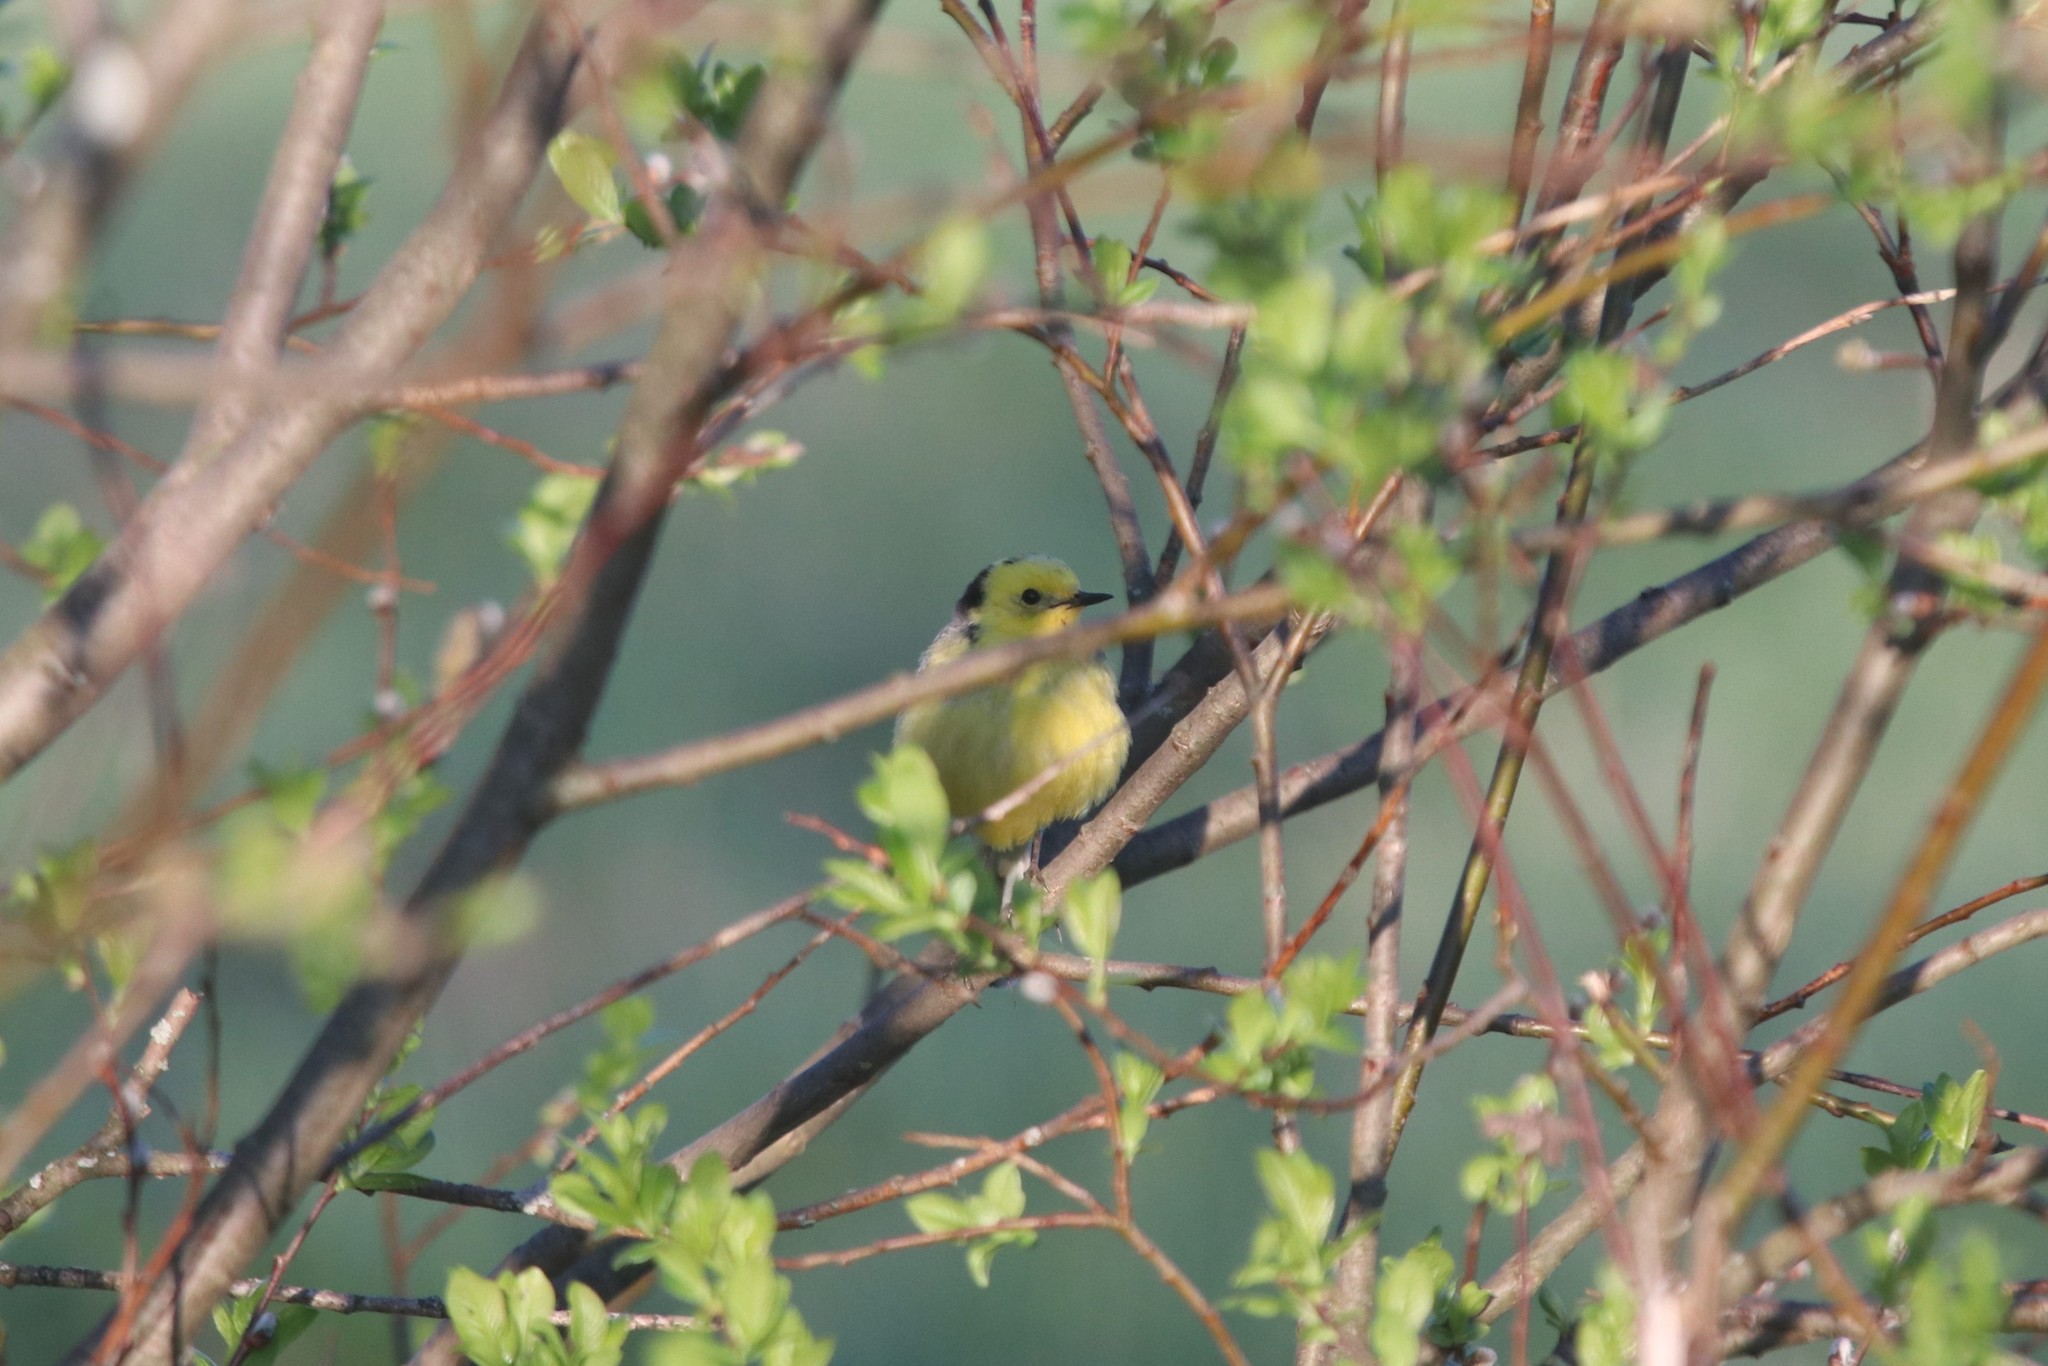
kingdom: Animalia
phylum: Chordata
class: Aves
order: Passeriformes
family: Motacillidae
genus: Motacilla
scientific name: Motacilla citreola
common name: Citrine wagtail
